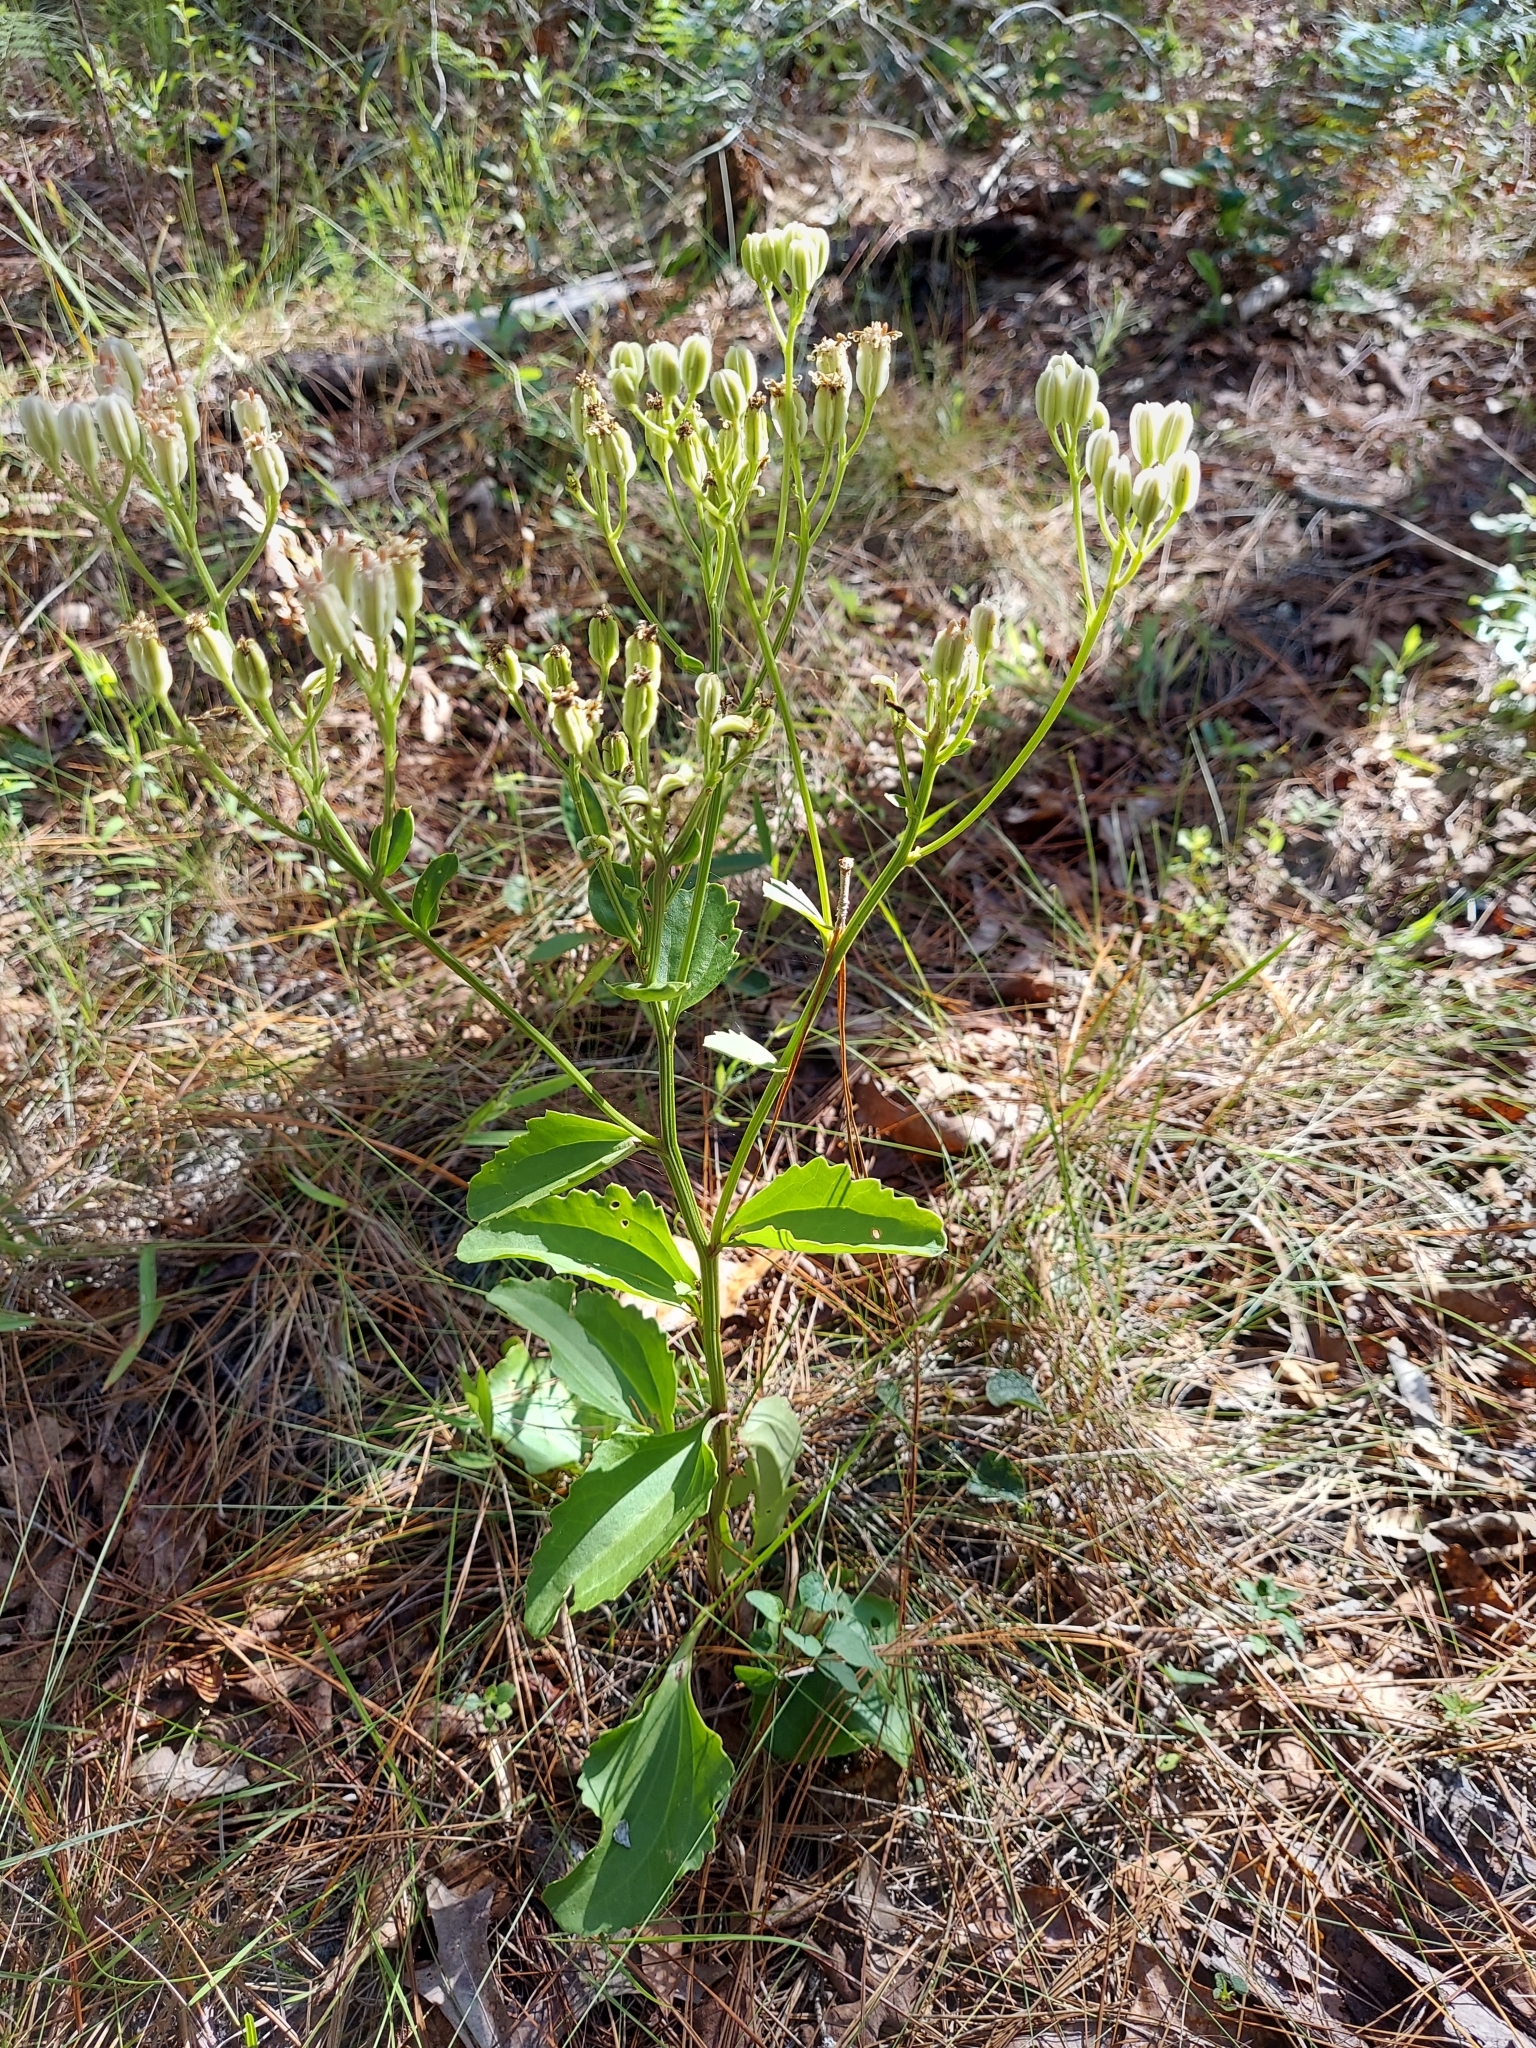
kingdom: Plantae
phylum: Tracheophyta
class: Magnoliopsida
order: Asterales
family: Asteraceae
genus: Arnoglossum
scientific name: Arnoglossum floridanum
